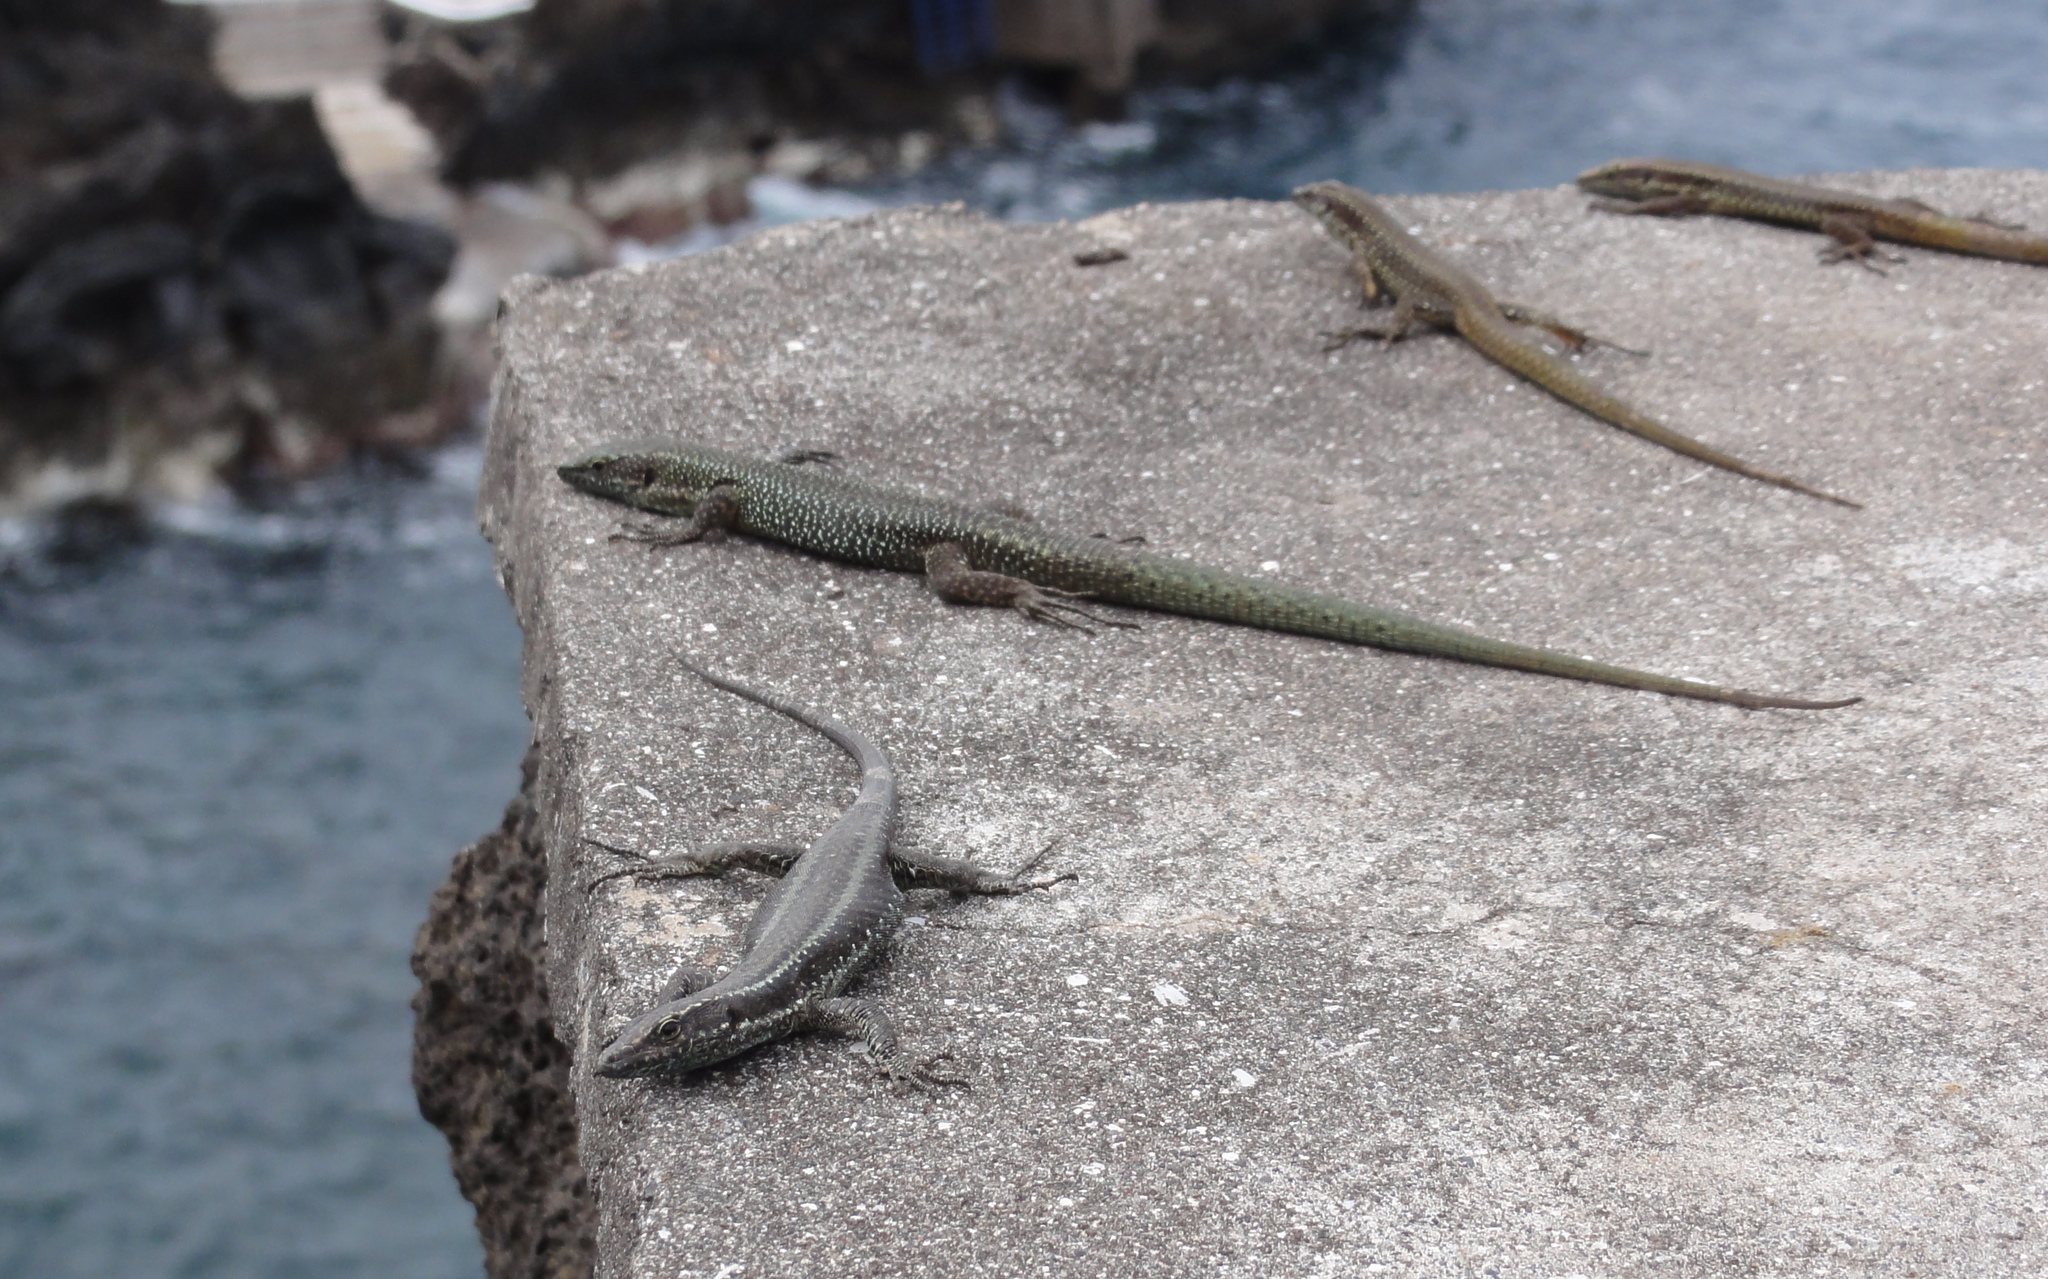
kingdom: Animalia
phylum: Chordata
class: Squamata
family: Lacertidae
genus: Teira
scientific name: Teira dugesii
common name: Madeira lizard
